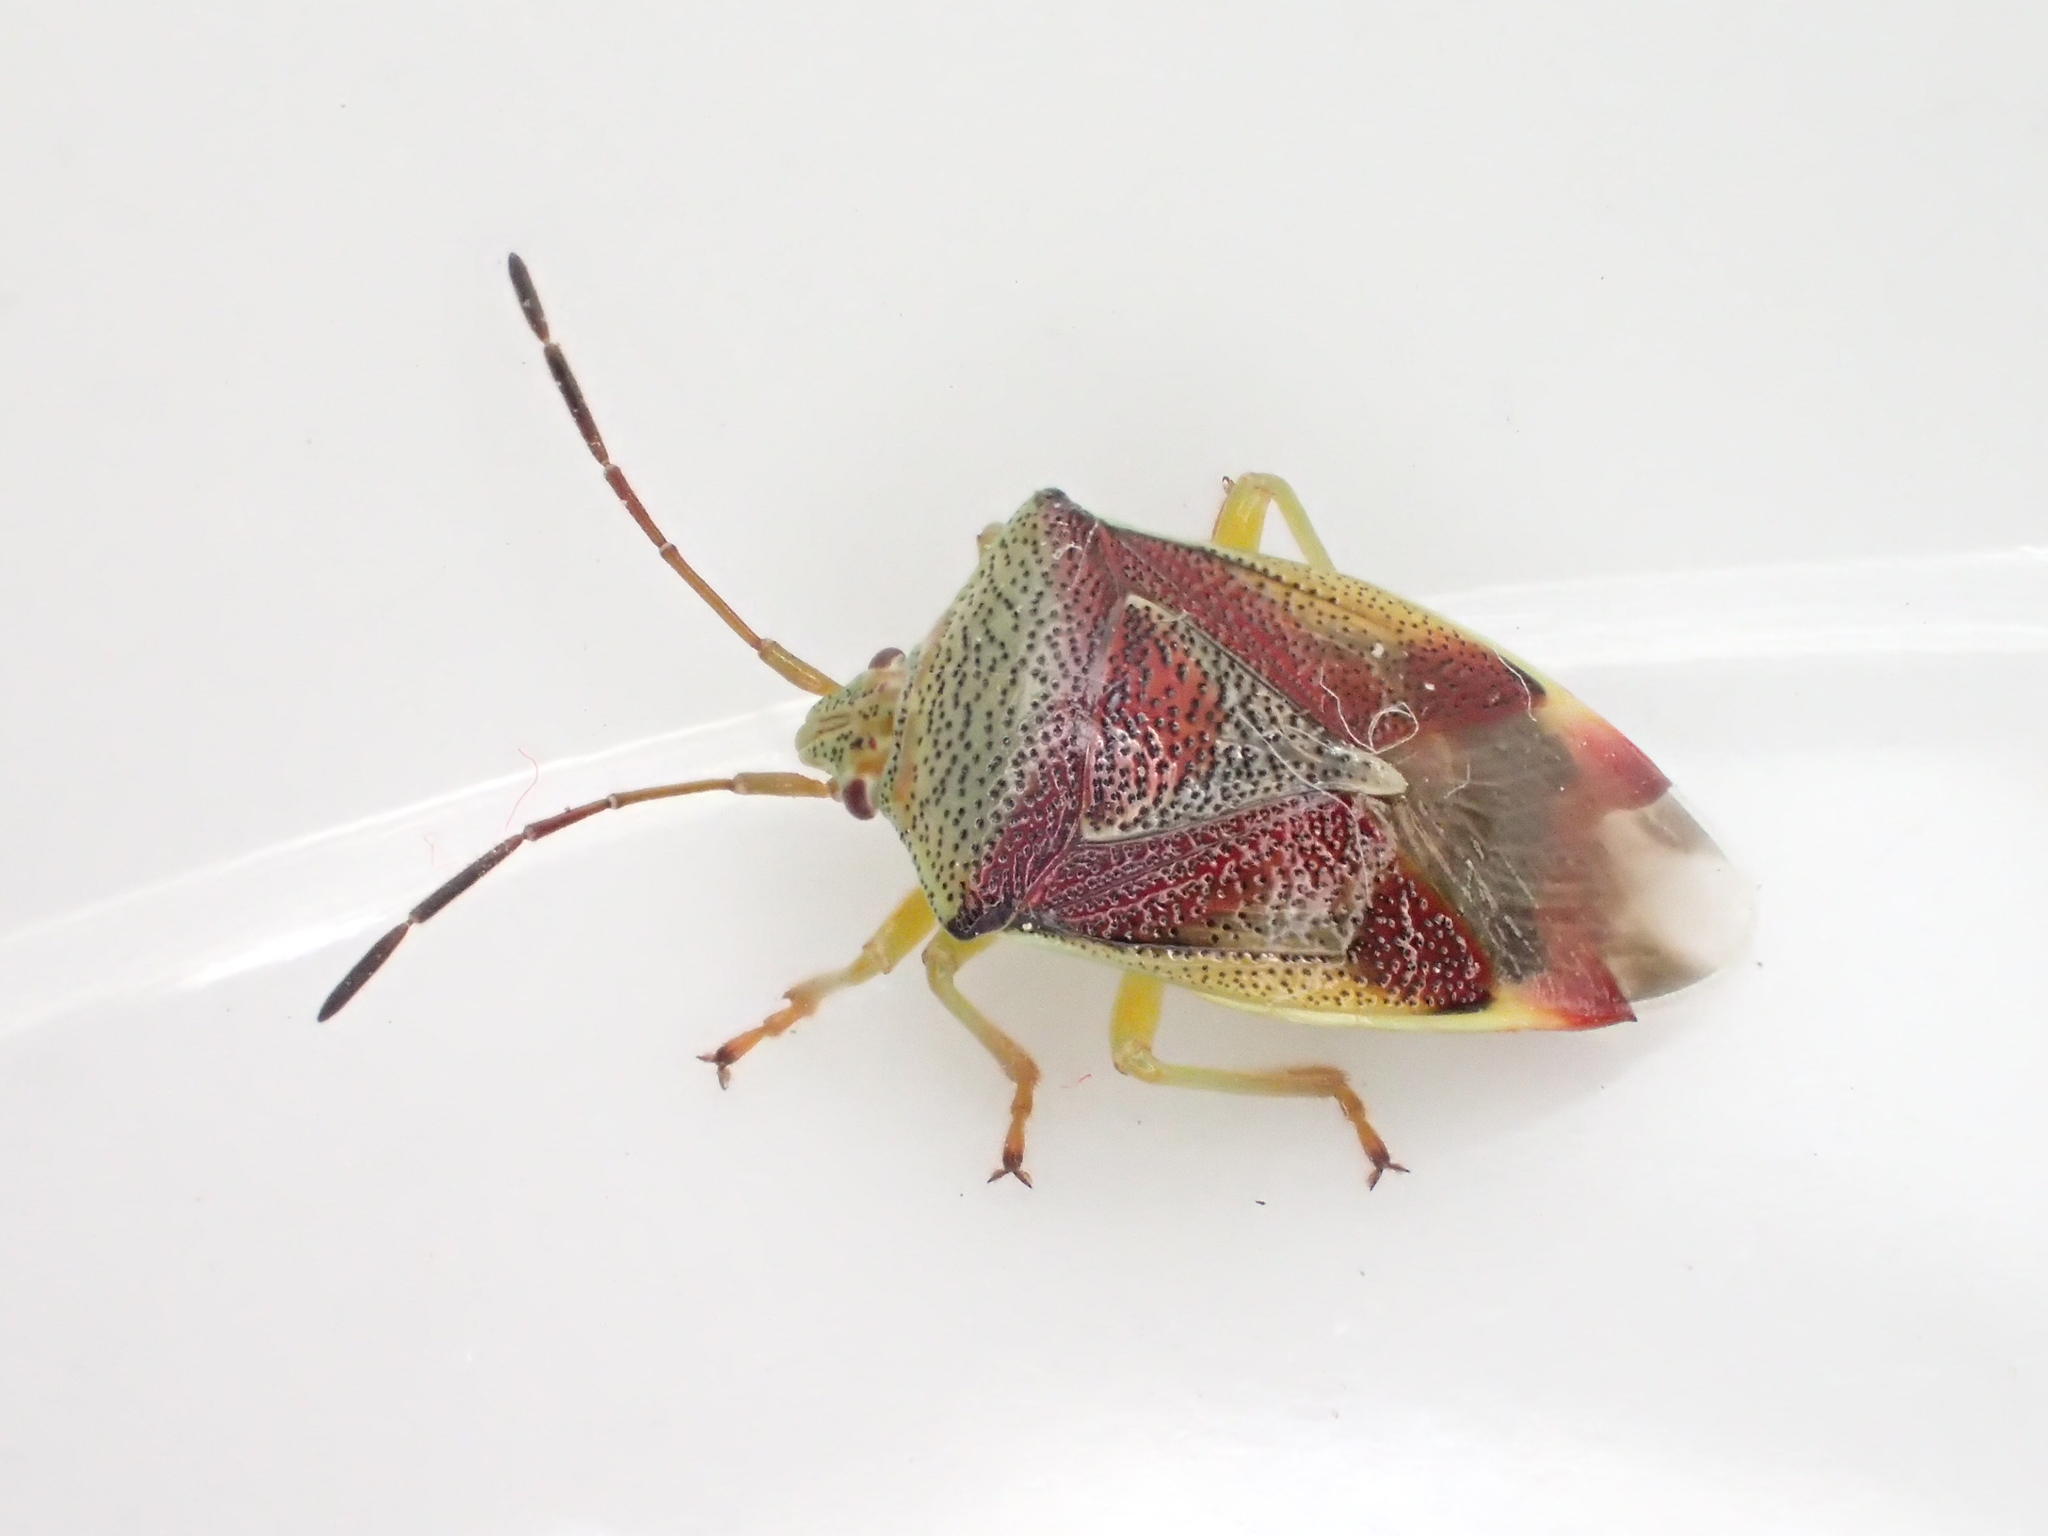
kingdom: Animalia
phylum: Arthropoda
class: Insecta
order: Hemiptera
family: Acanthosomatidae
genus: Elasmostethus
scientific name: Elasmostethus interstinctus
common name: Birch shieldbug
